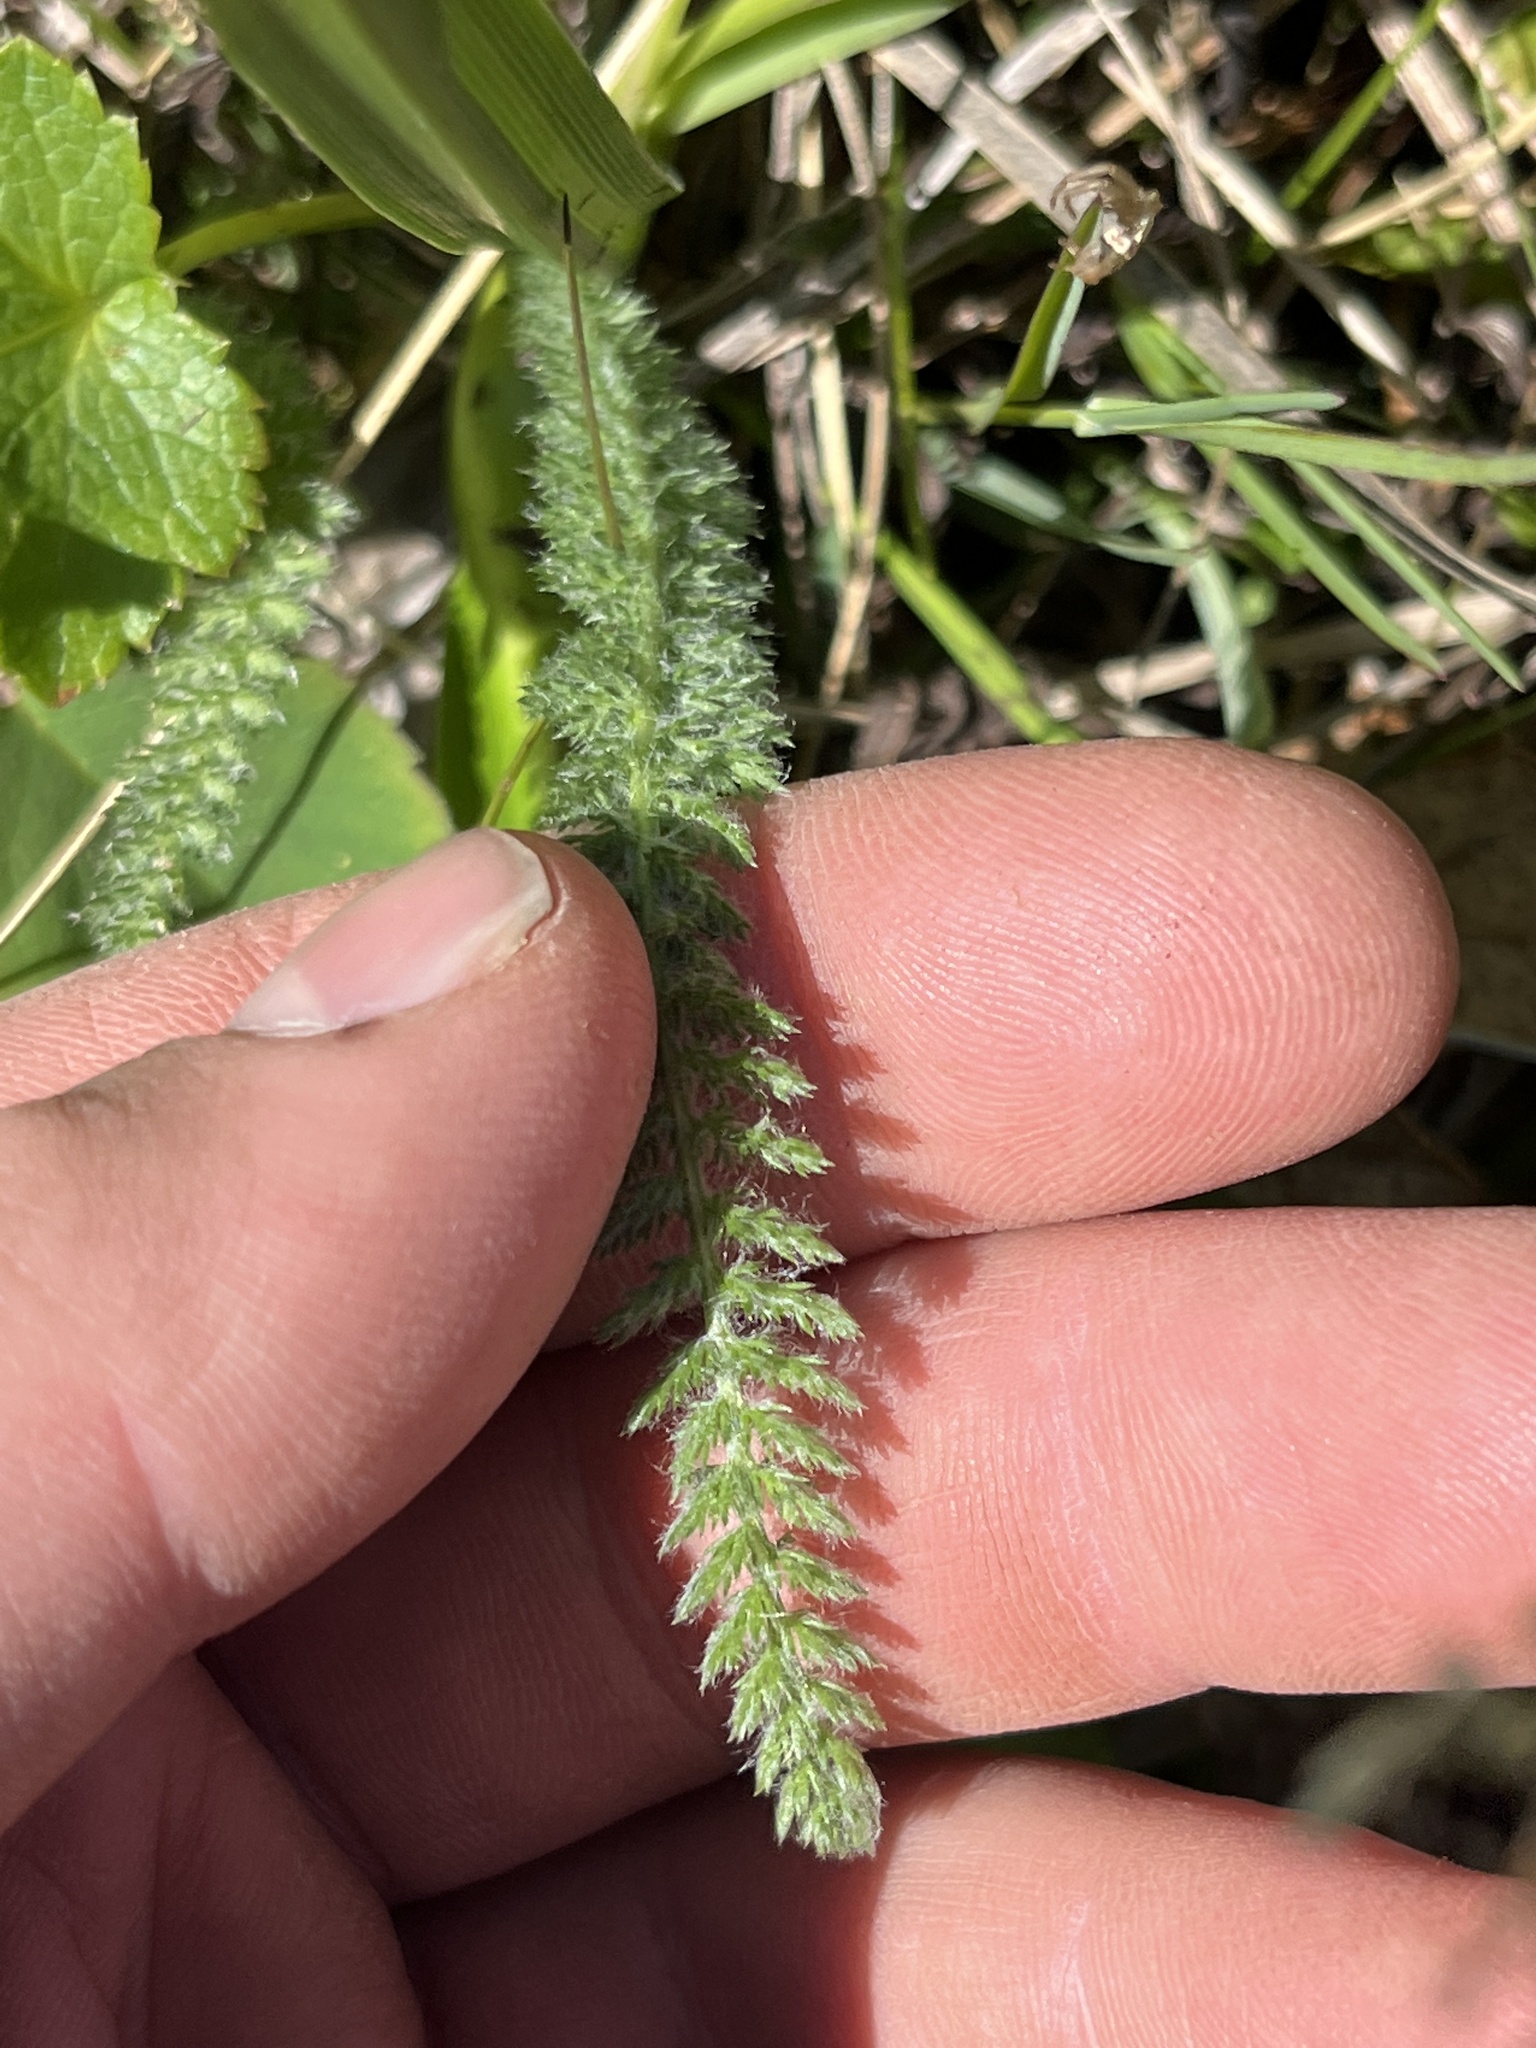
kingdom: Plantae
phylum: Tracheophyta
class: Magnoliopsida
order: Asterales
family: Asteraceae
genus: Achillea
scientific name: Achillea millefolium
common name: Yarrow
